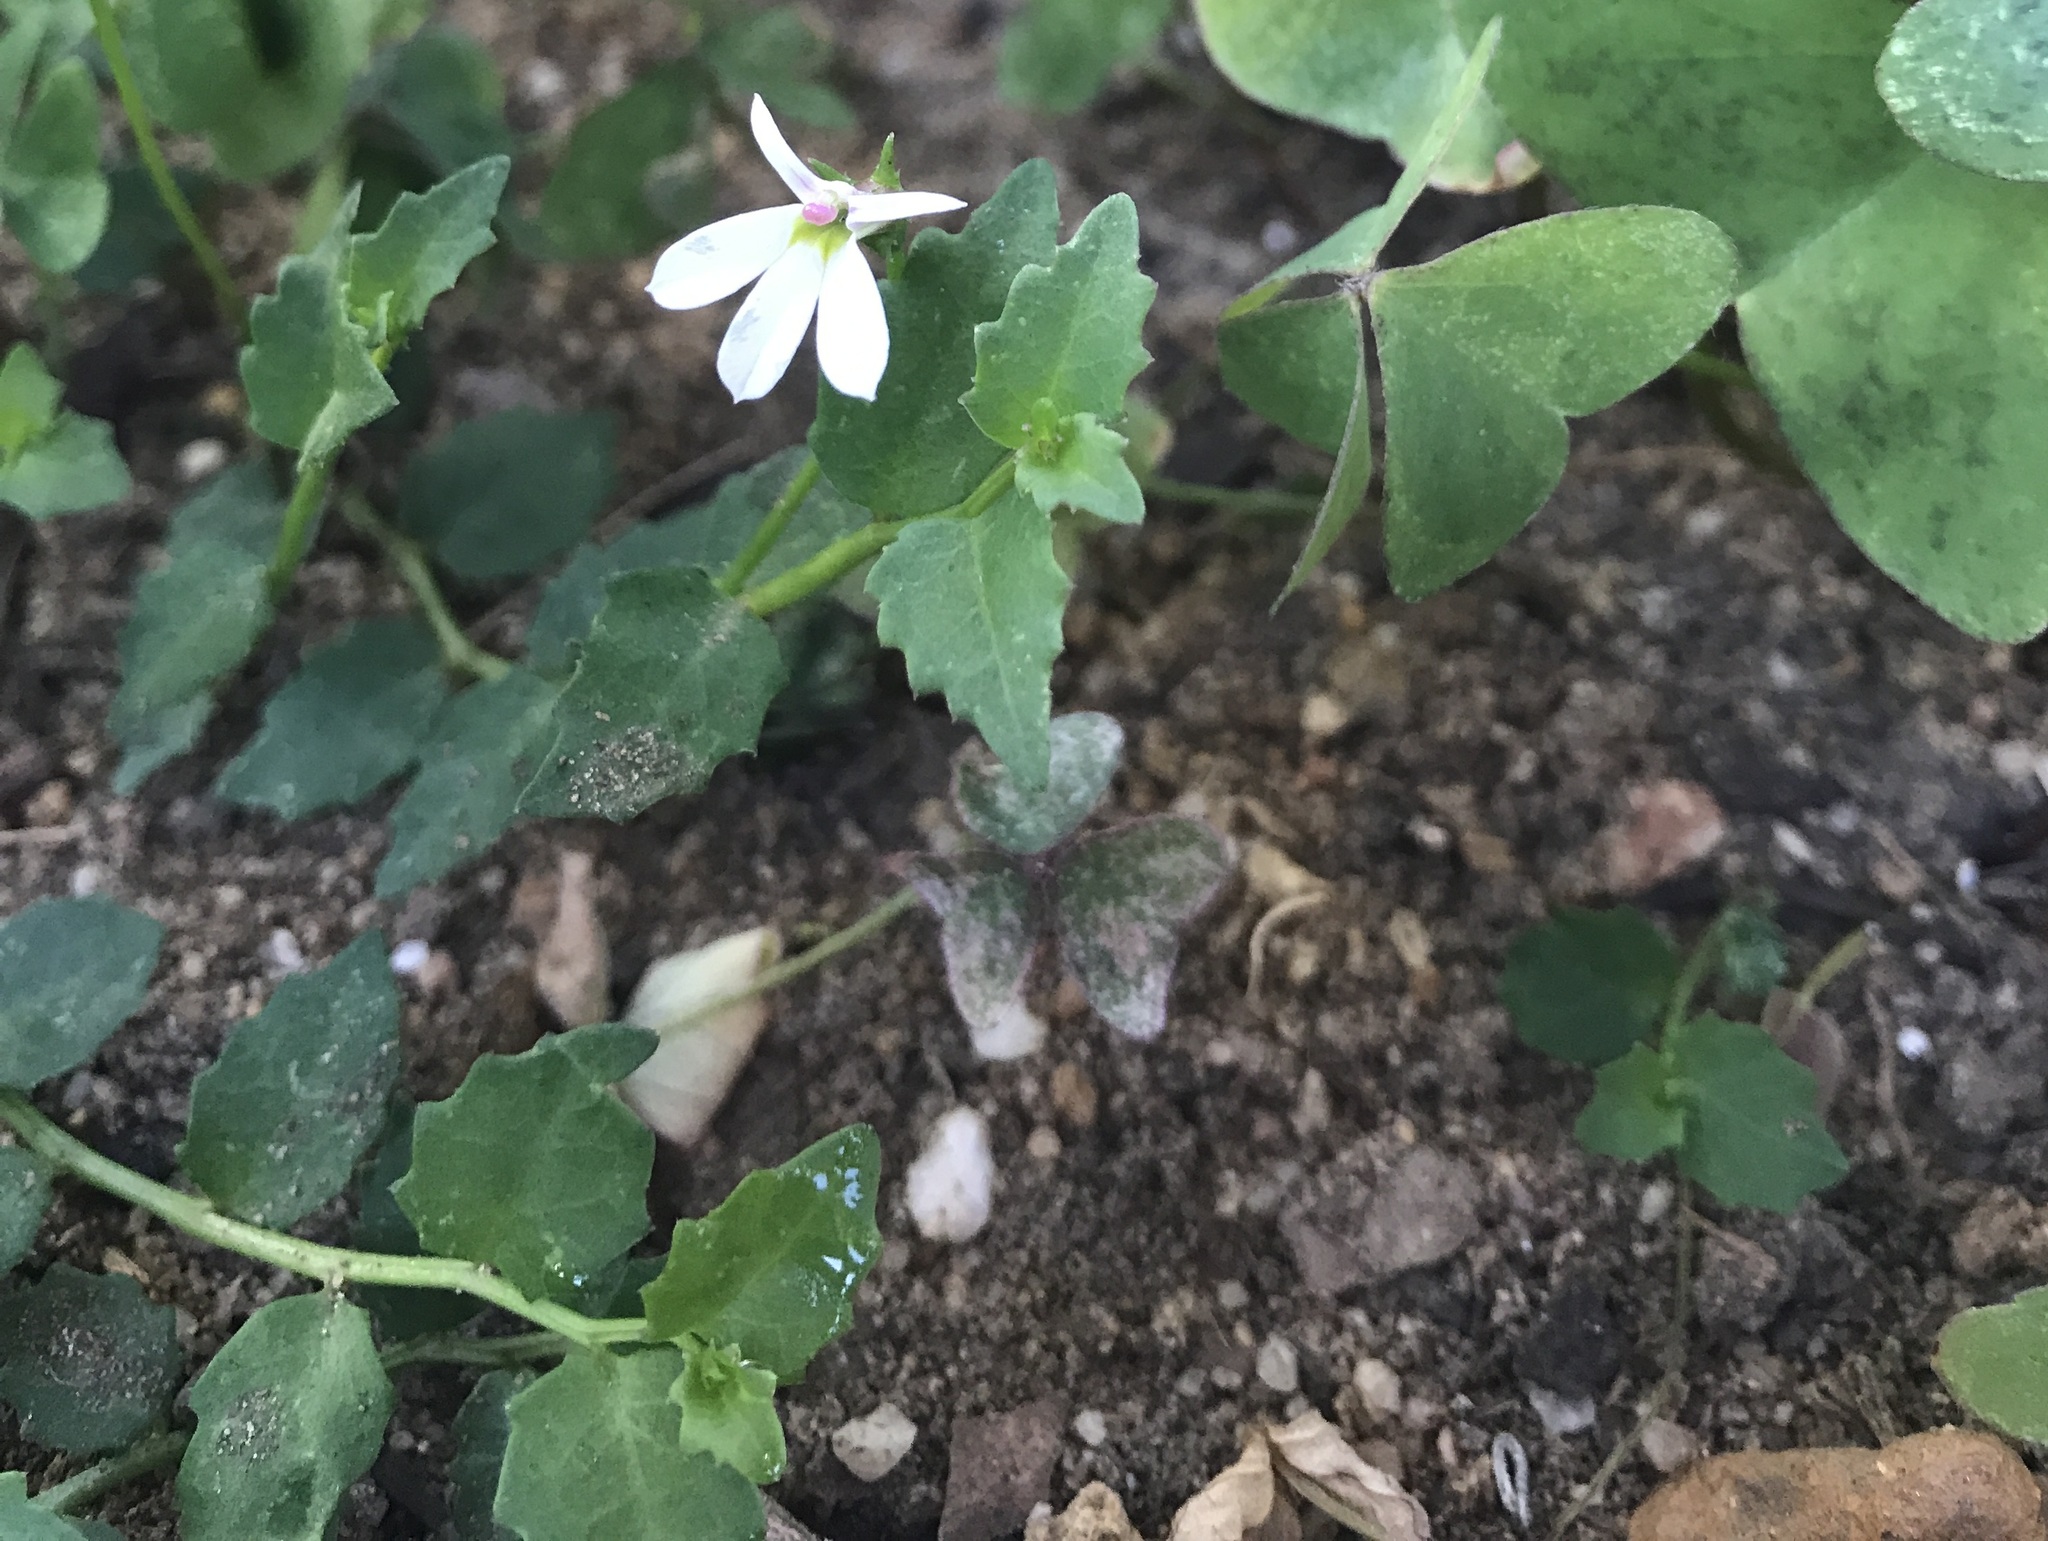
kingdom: Plantae
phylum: Tracheophyta
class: Magnoliopsida
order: Asterales
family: Campanulaceae
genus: Lobelia
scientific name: Lobelia purpurascens
